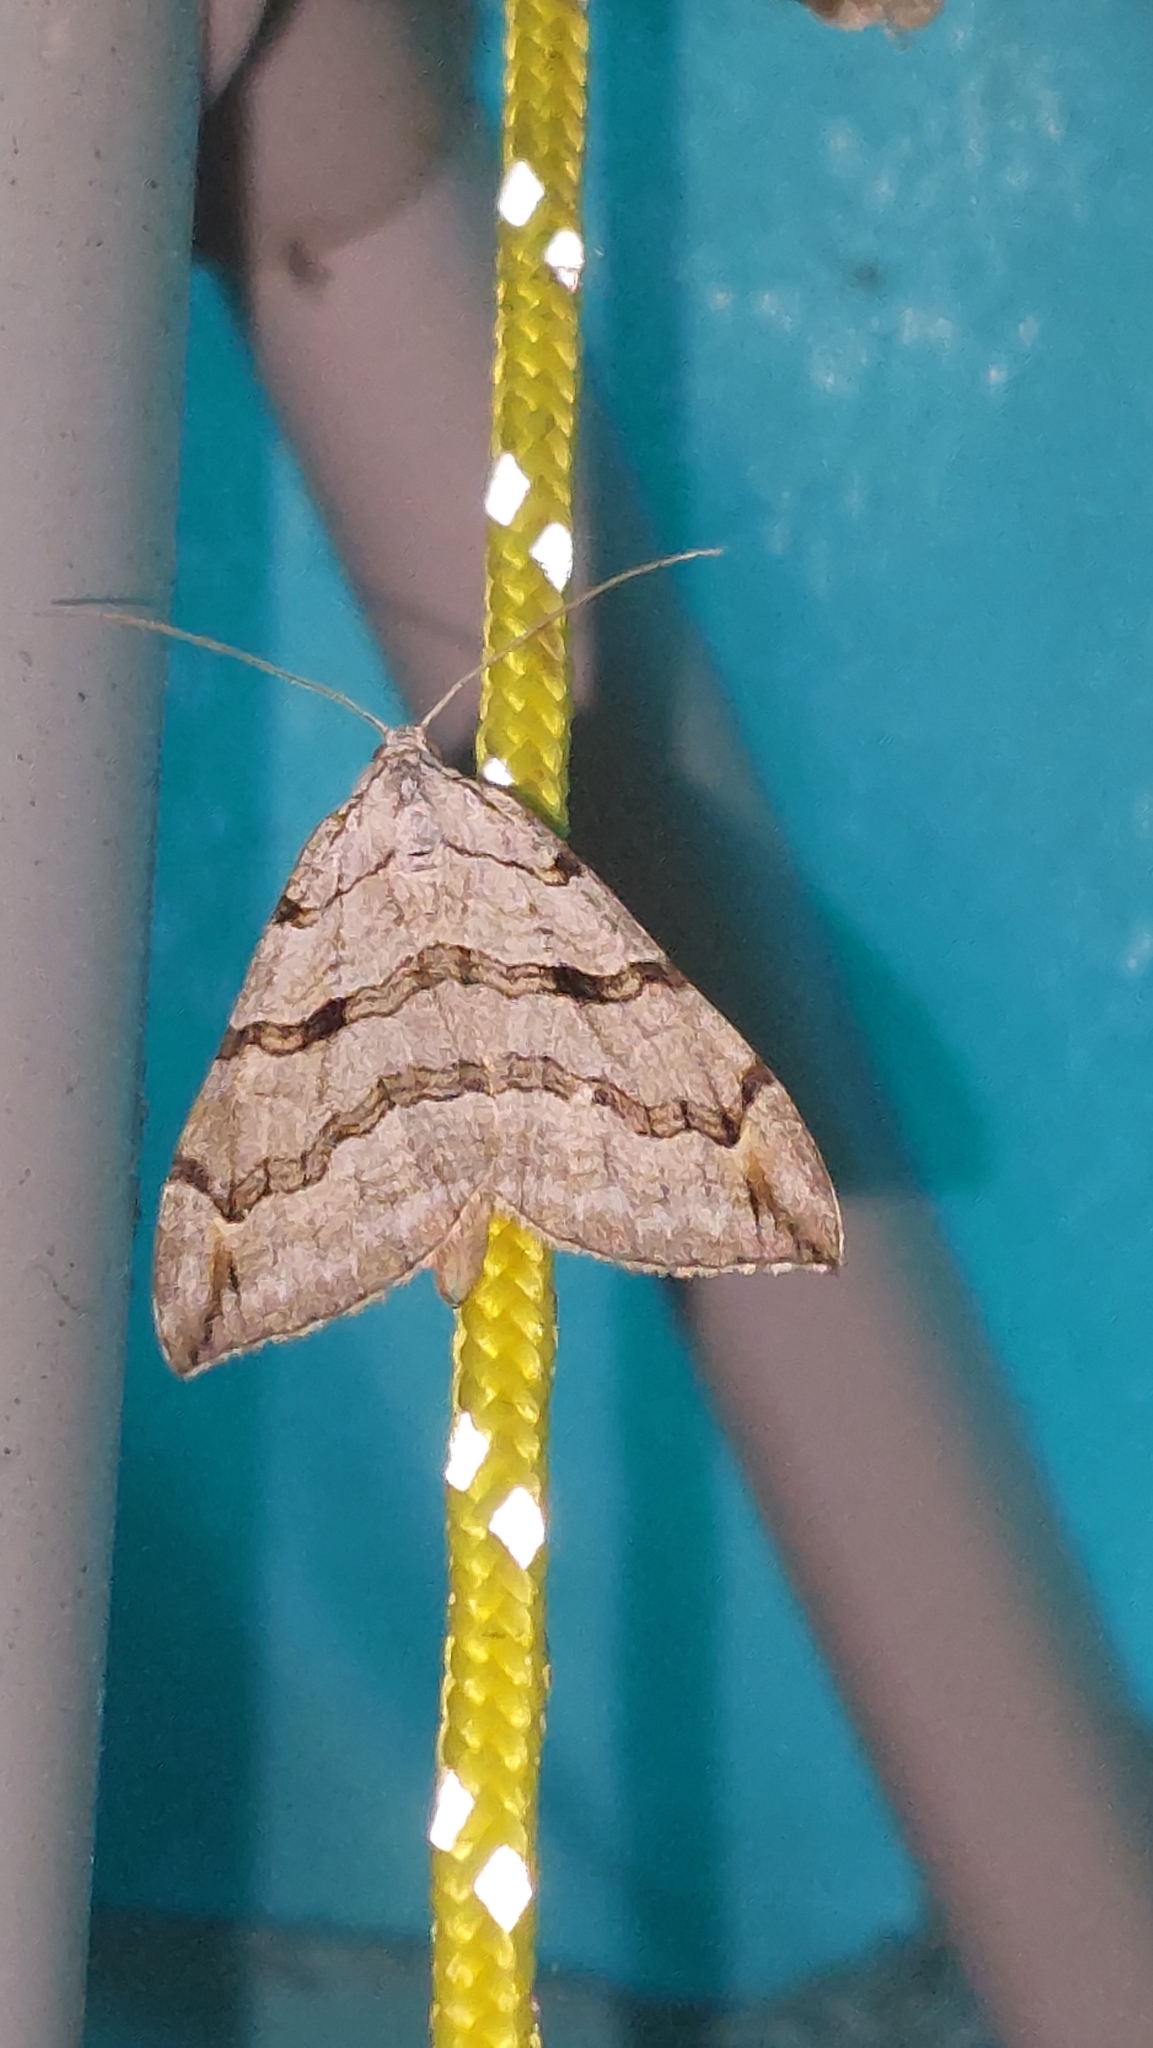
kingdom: Animalia
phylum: Arthropoda
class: Insecta
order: Lepidoptera
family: Geometridae
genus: Aplocera
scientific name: Aplocera plagiata
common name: Treble-bar
